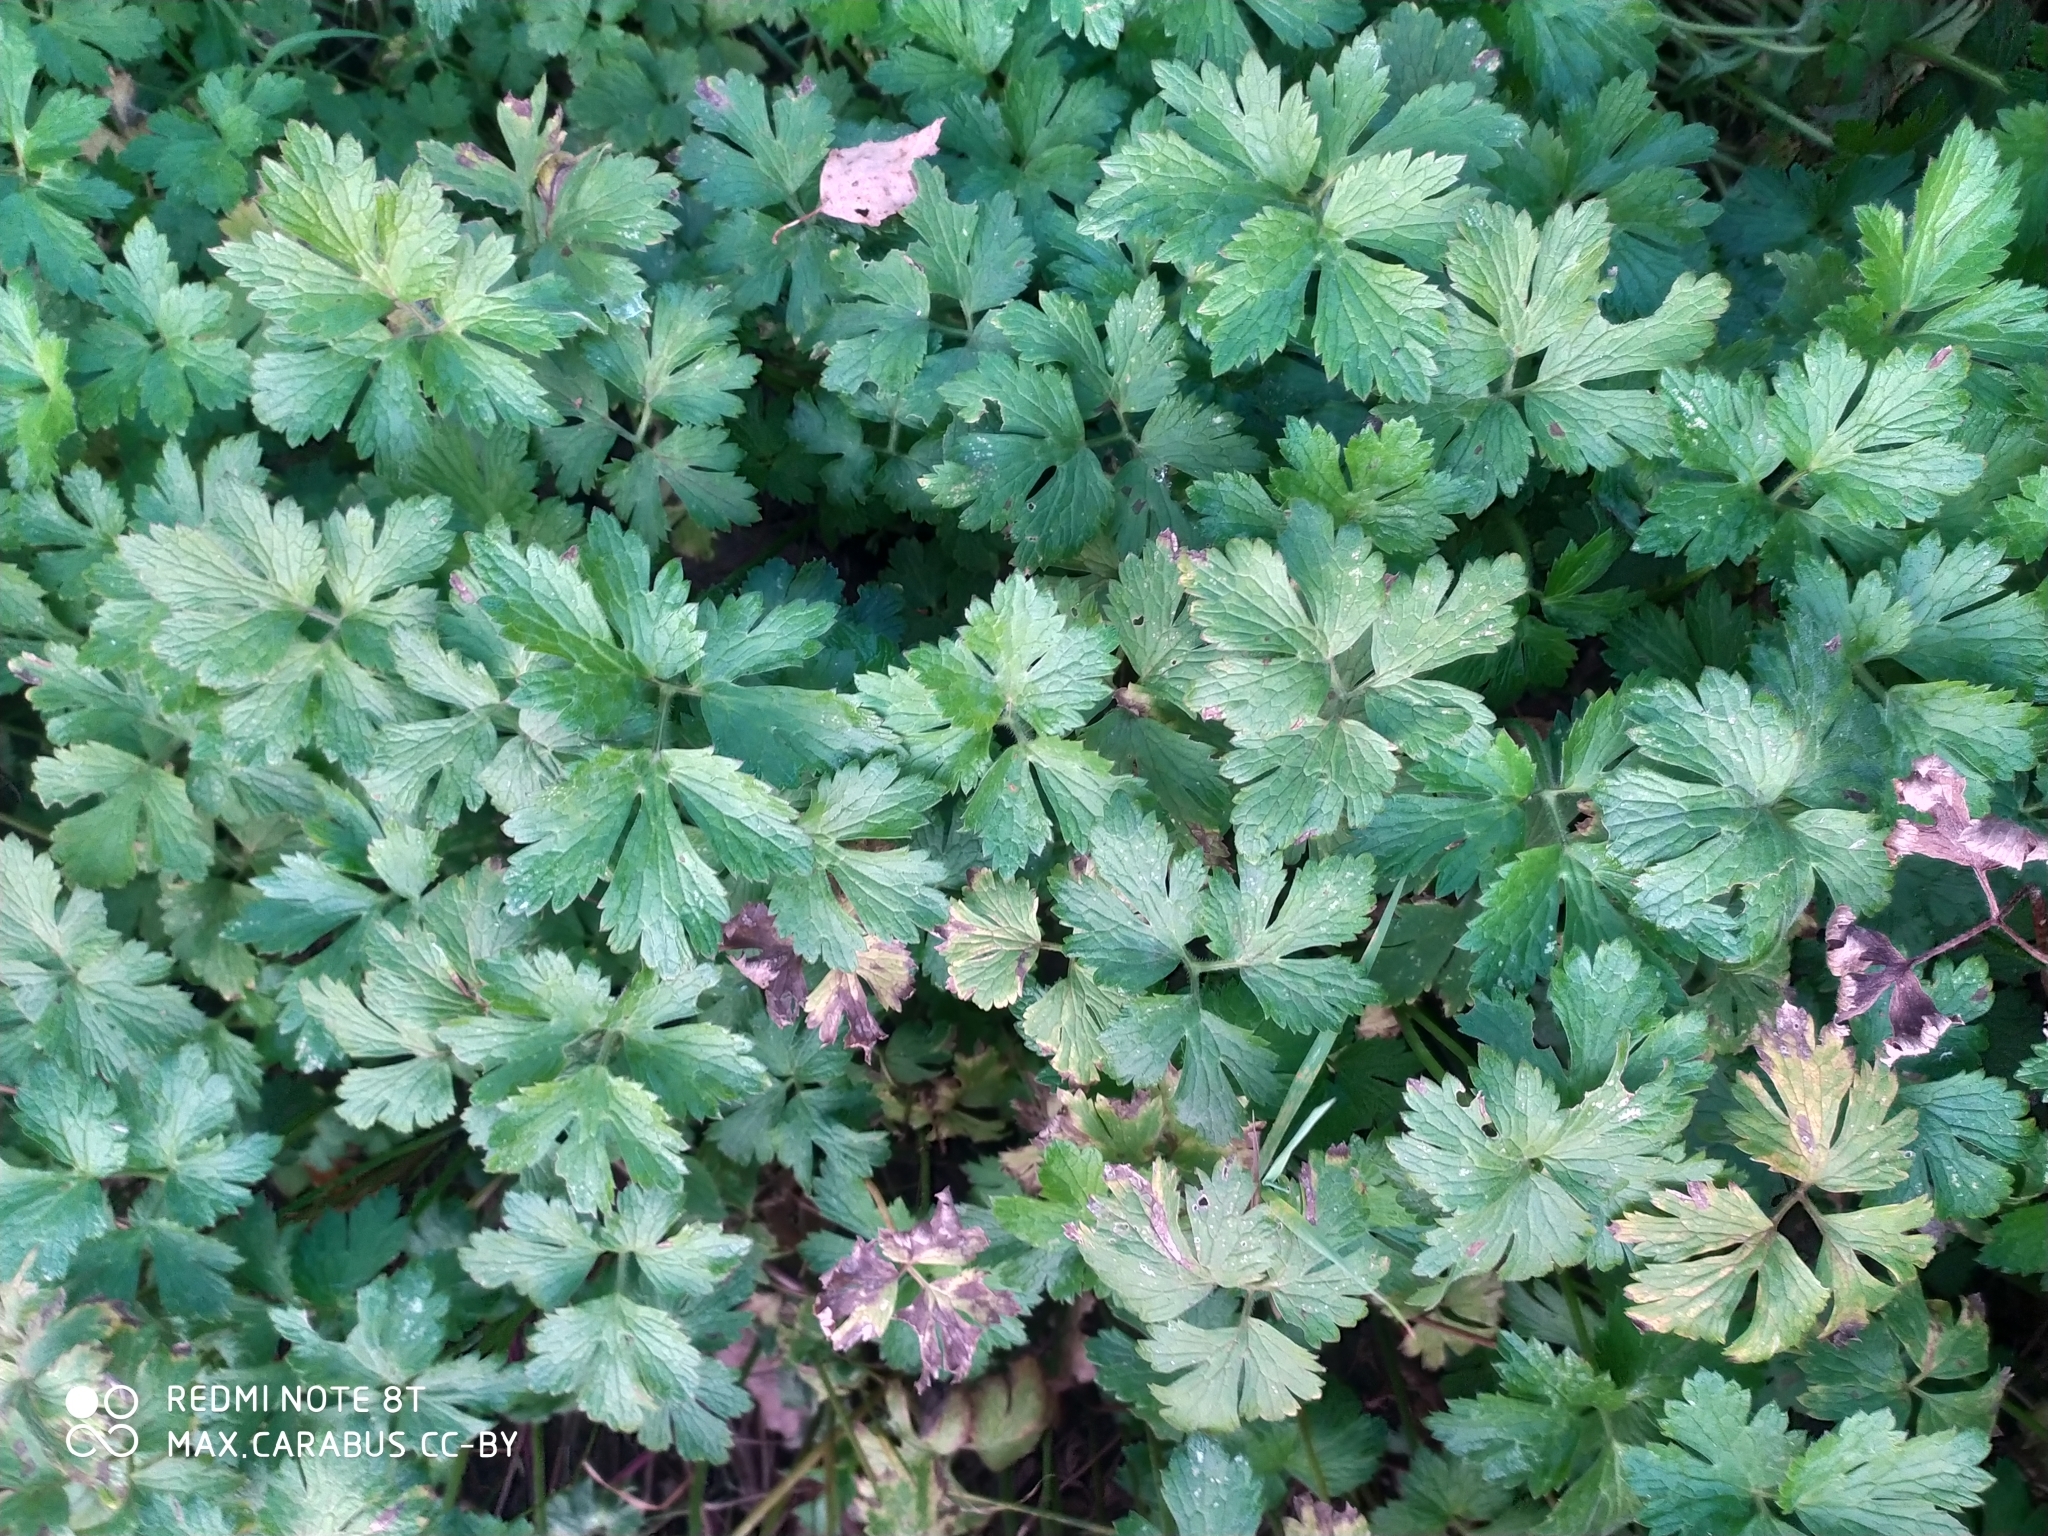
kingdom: Plantae
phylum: Tracheophyta
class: Magnoliopsida
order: Ranunculales
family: Ranunculaceae
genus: Ranunculus
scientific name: Ranunculus repens
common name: Creeping buttercup
